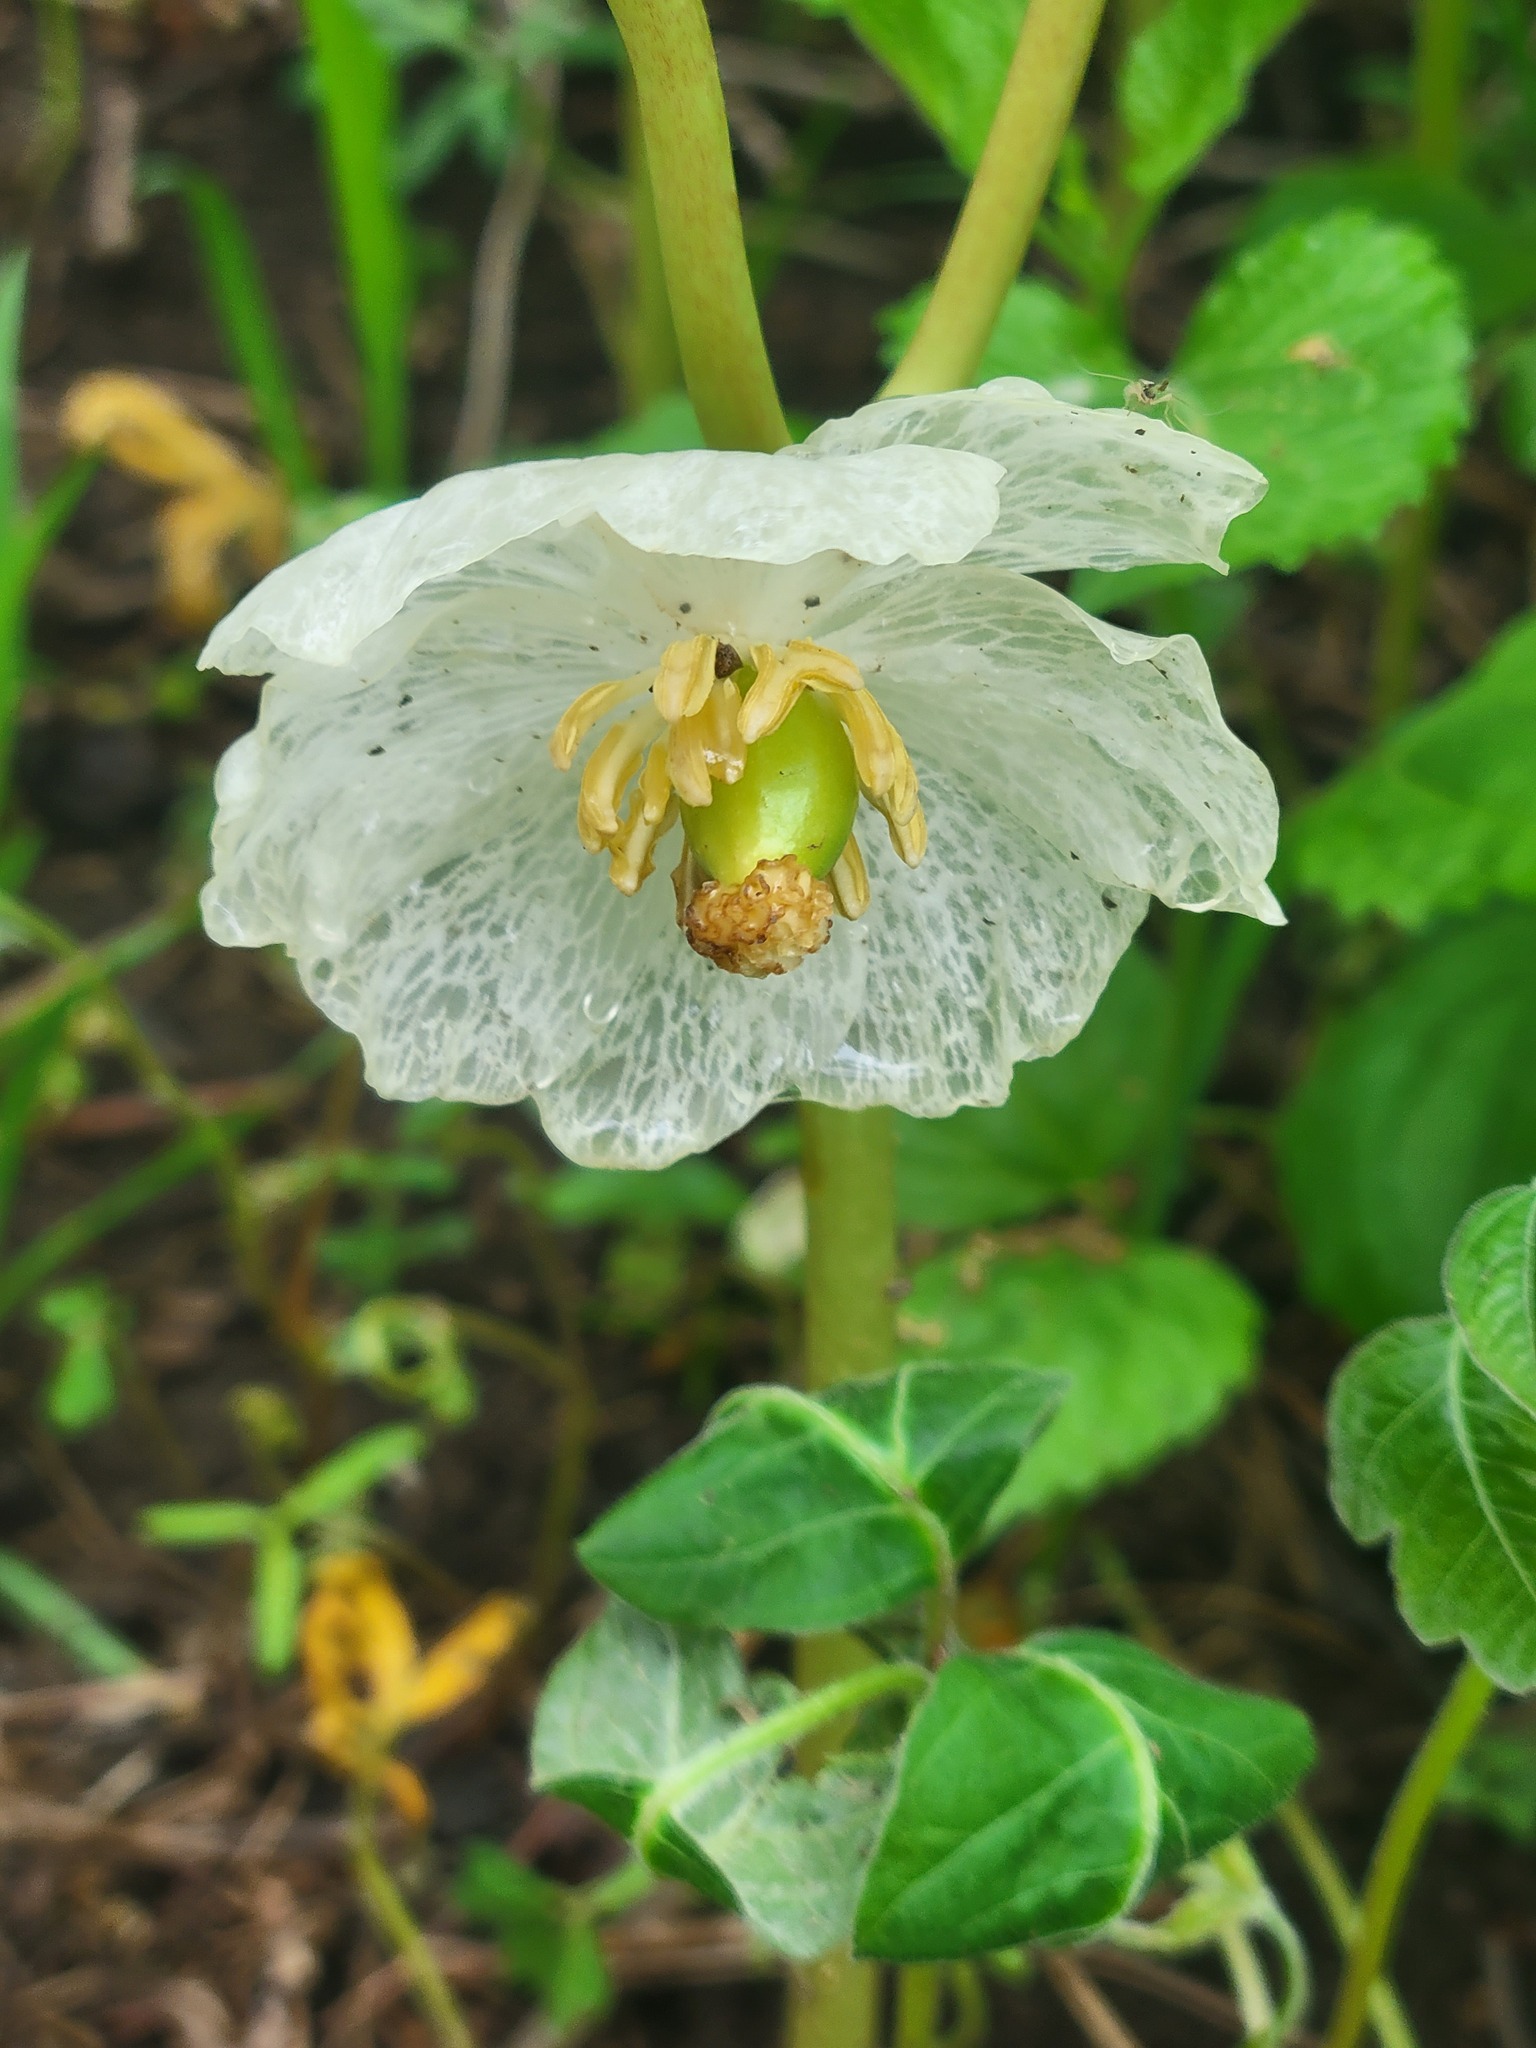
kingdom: Plantae
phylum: Tracheophyta
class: Magnoliopsida
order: Ranunculales
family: Berberidaceae
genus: Podophyllum
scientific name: Podophyllum peltatum
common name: Wild mandrake
